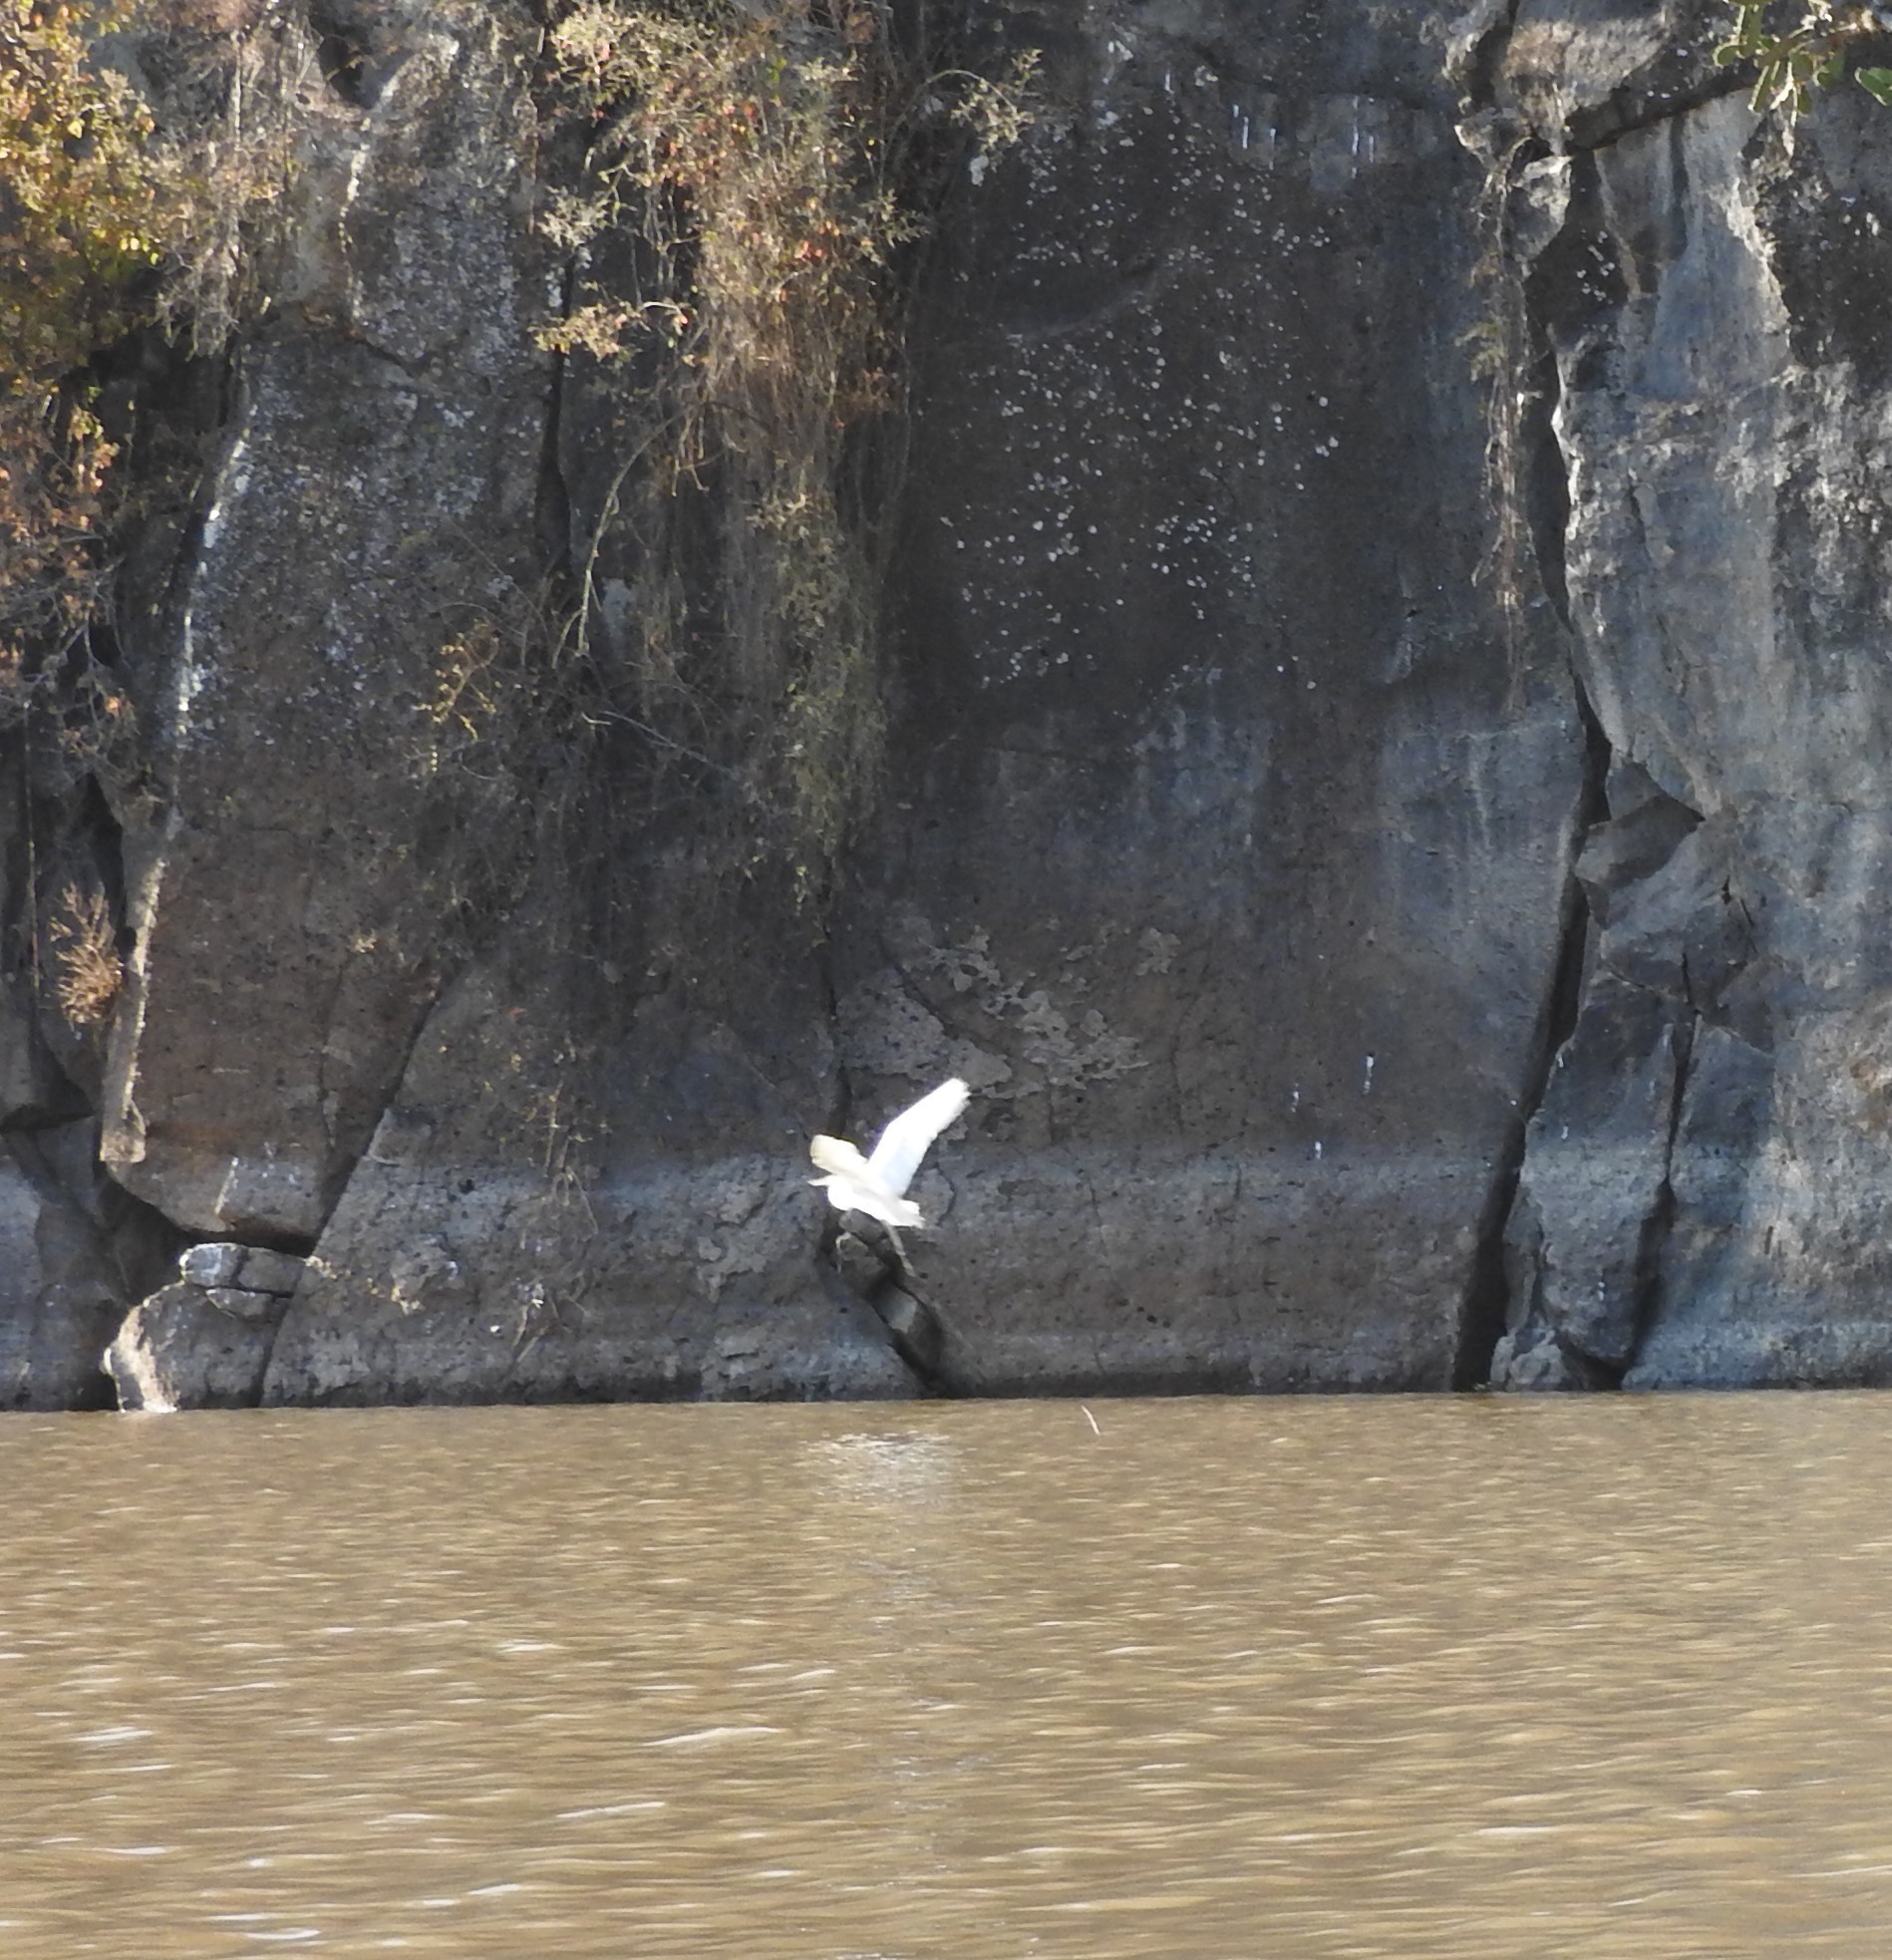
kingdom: Animalia
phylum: Chordata
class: Aves
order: Pelecaniformes
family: Ardeidae
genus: Egretta
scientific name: Egretta thula
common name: Snowy egret
